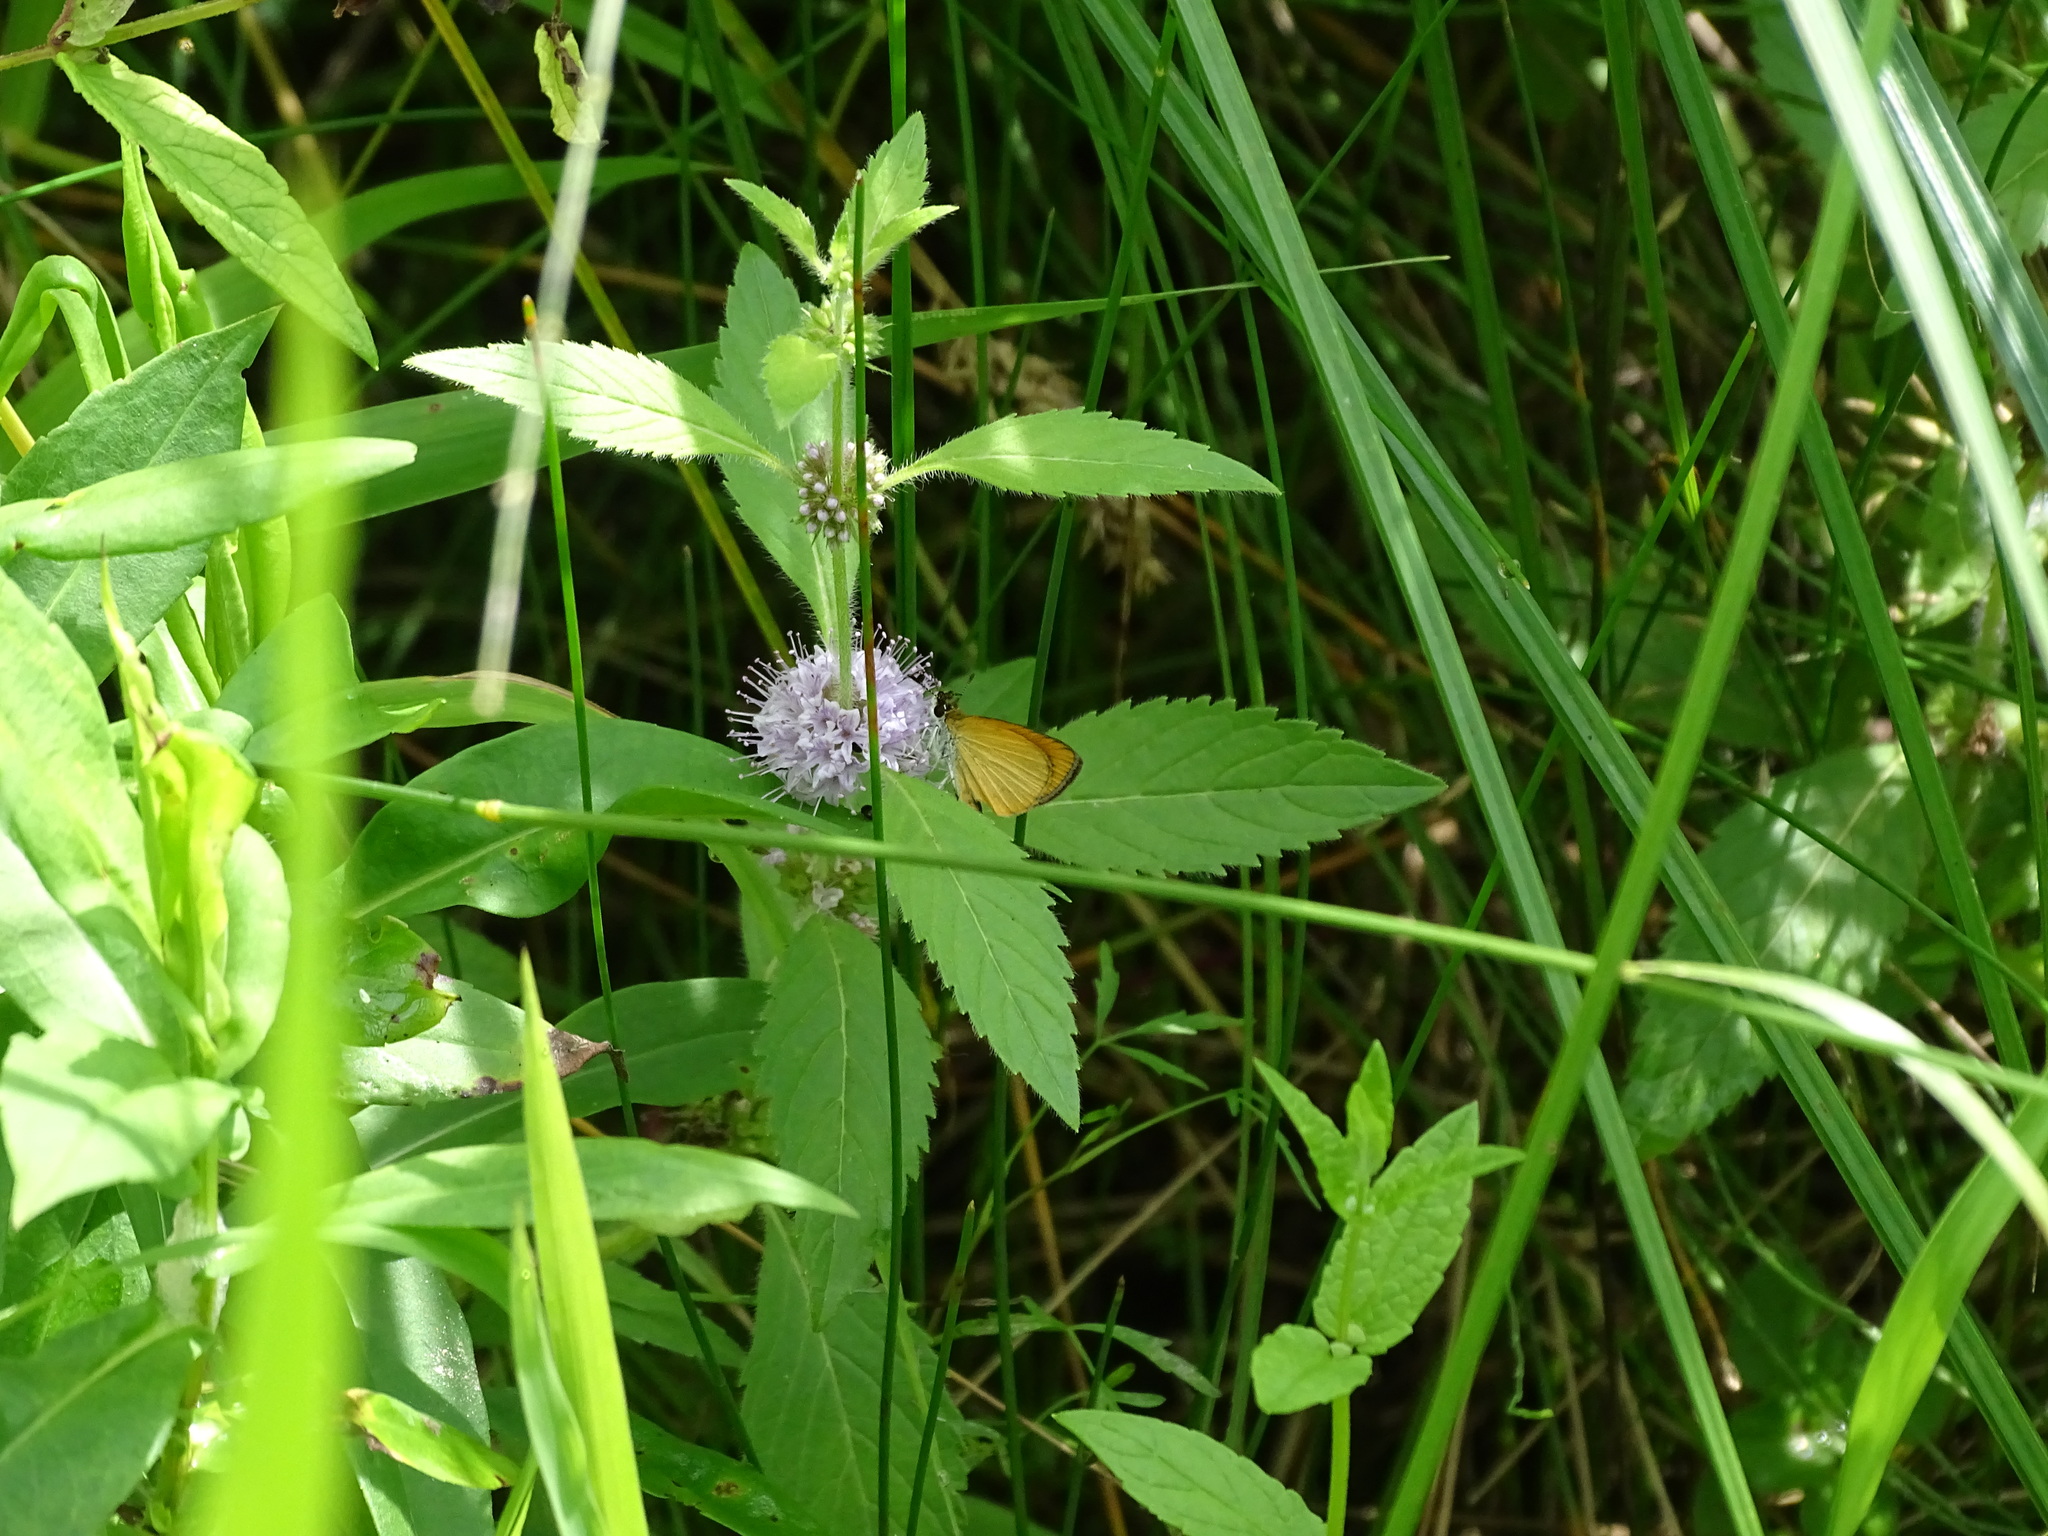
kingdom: Animalia
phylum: Arthropoda
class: Insecta
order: Lepidoptera
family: Hesperiidae
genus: Ancyloxypha
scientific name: Ancyloxypha numitor
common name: Least skipper
